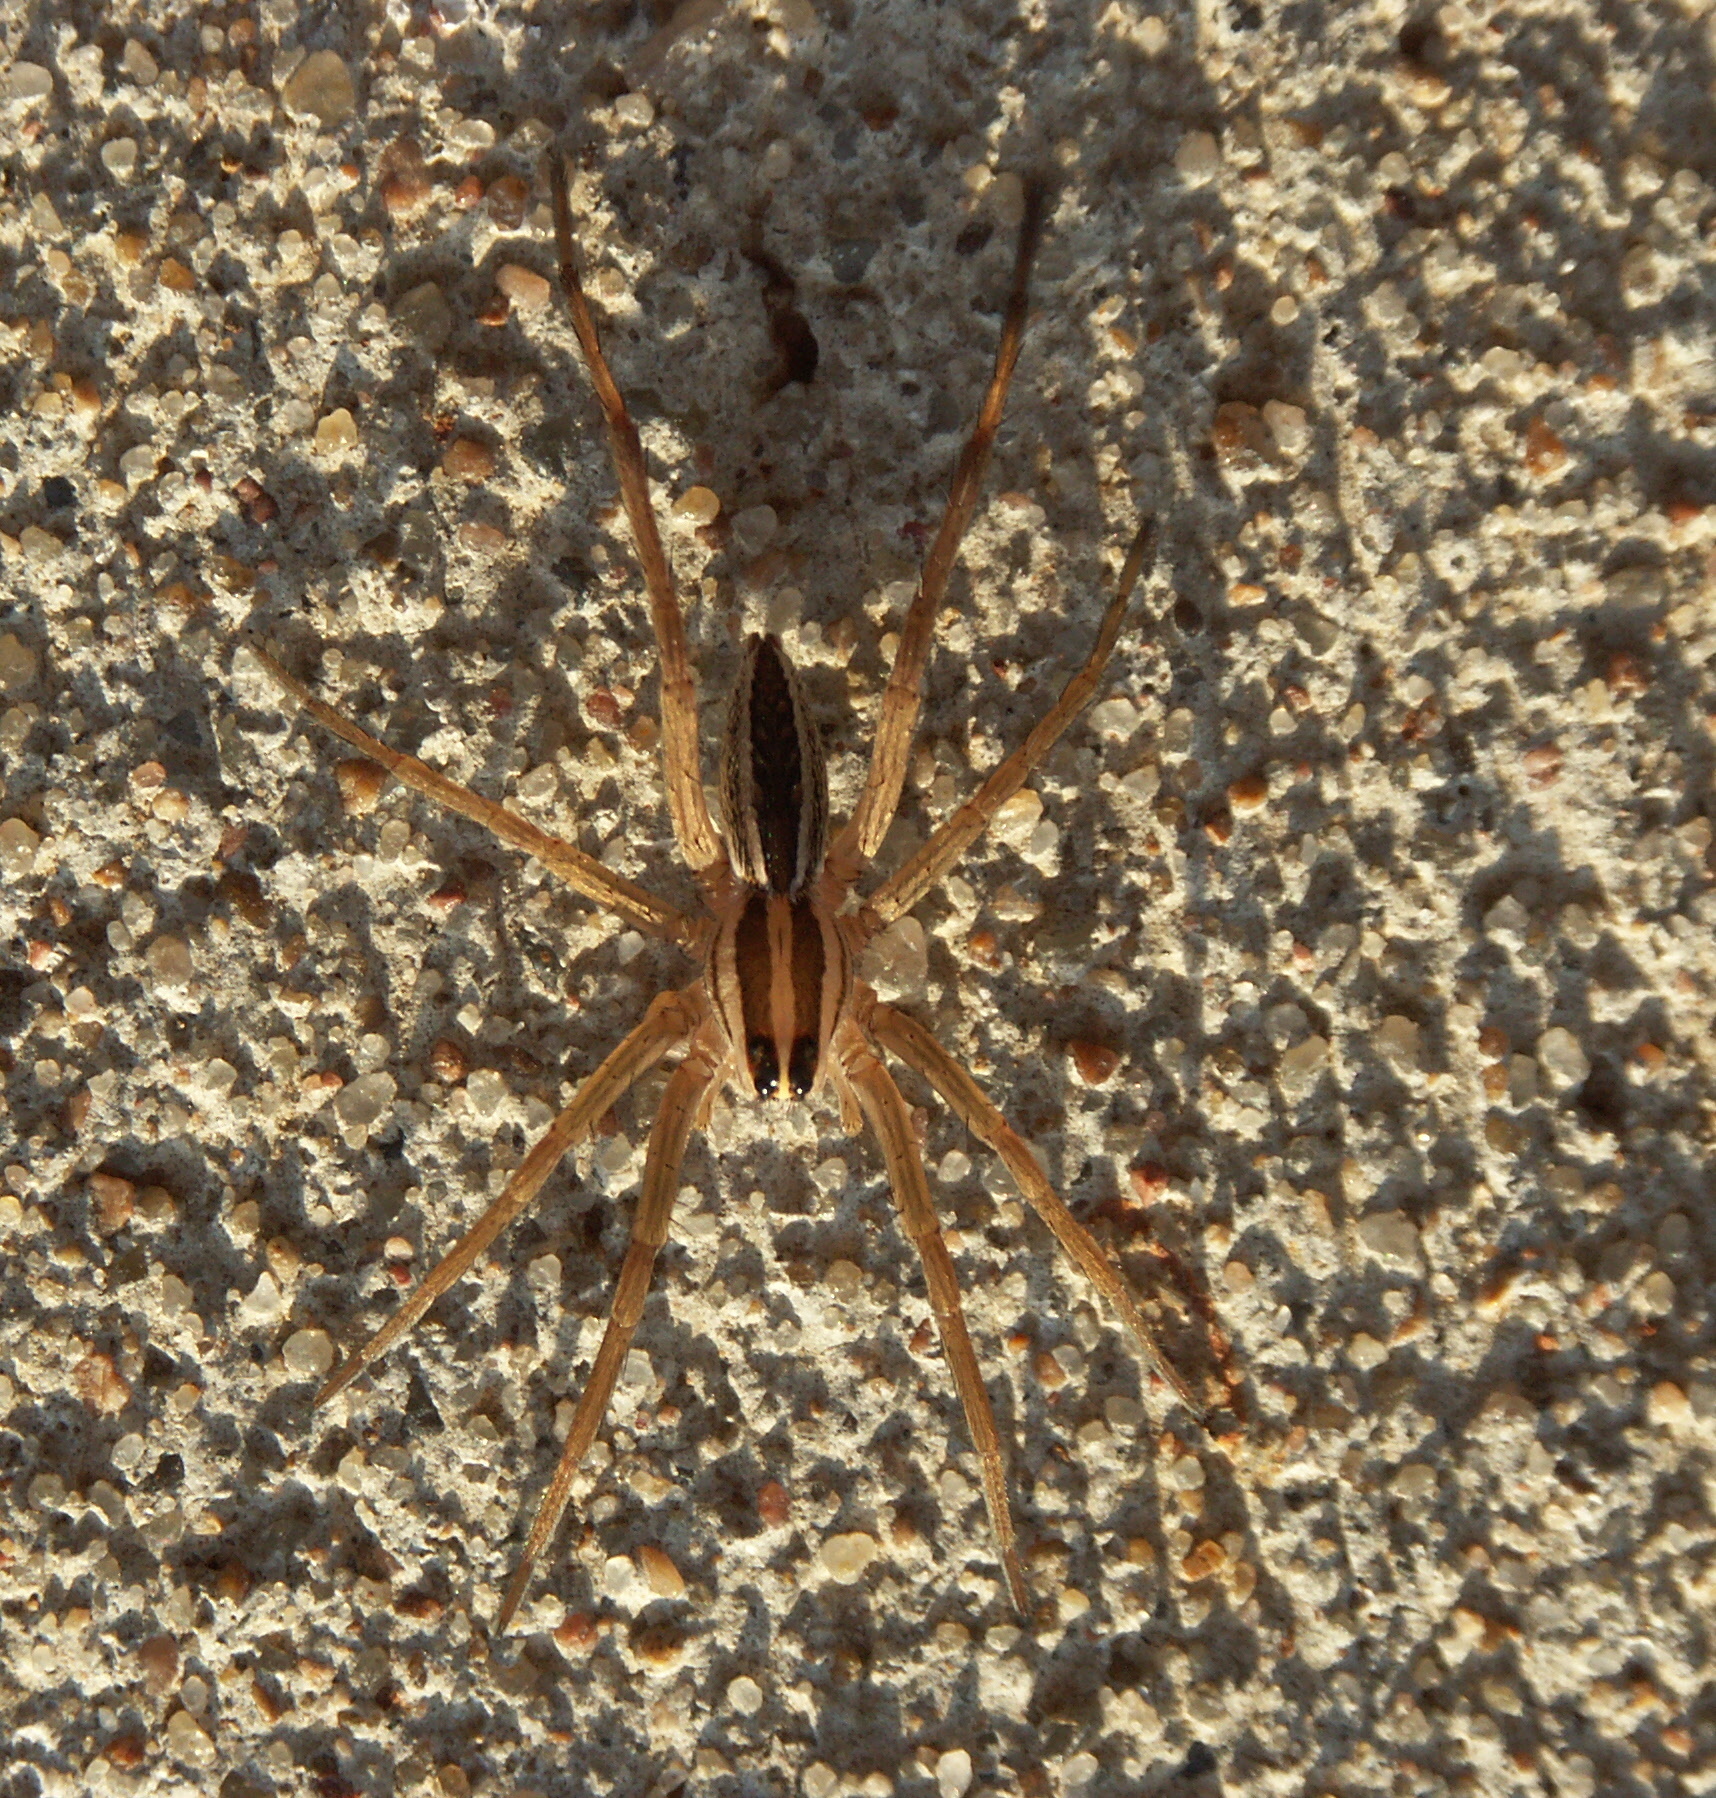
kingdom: Animalia
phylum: Arthropoda
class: Arachnida
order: Araneae
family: Lycosidae
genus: Rabidosa
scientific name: Rabidosa rabida
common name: Rabid wolf spider
